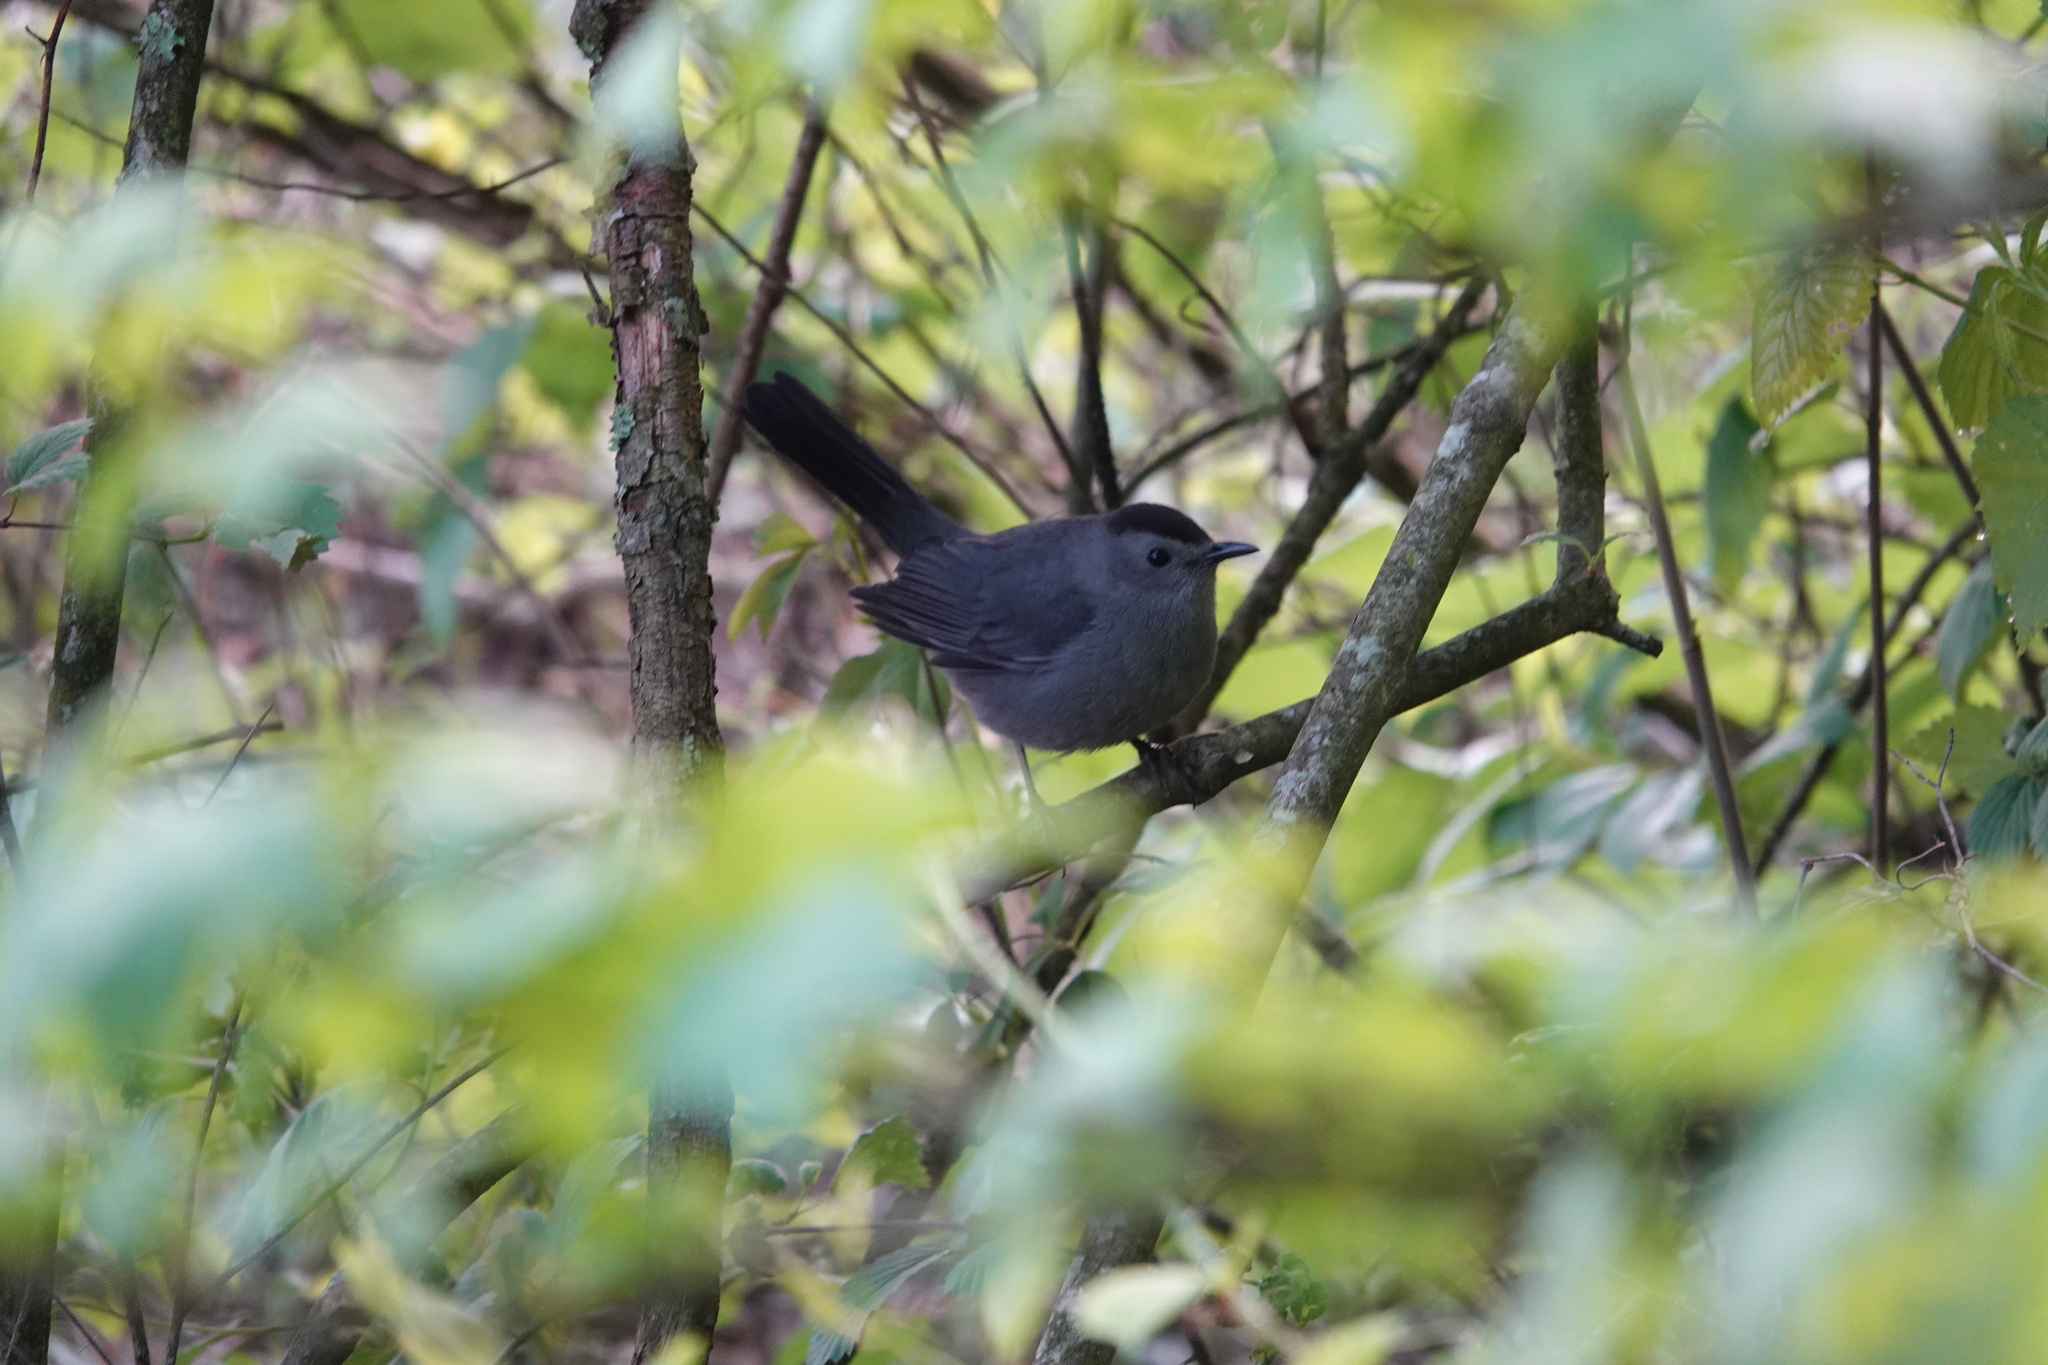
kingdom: Animalia
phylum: Chordata
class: Aves
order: Passeriformes
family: Mimidae
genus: Dumetella
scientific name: Dumetella carolinensis
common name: Gray catbird
